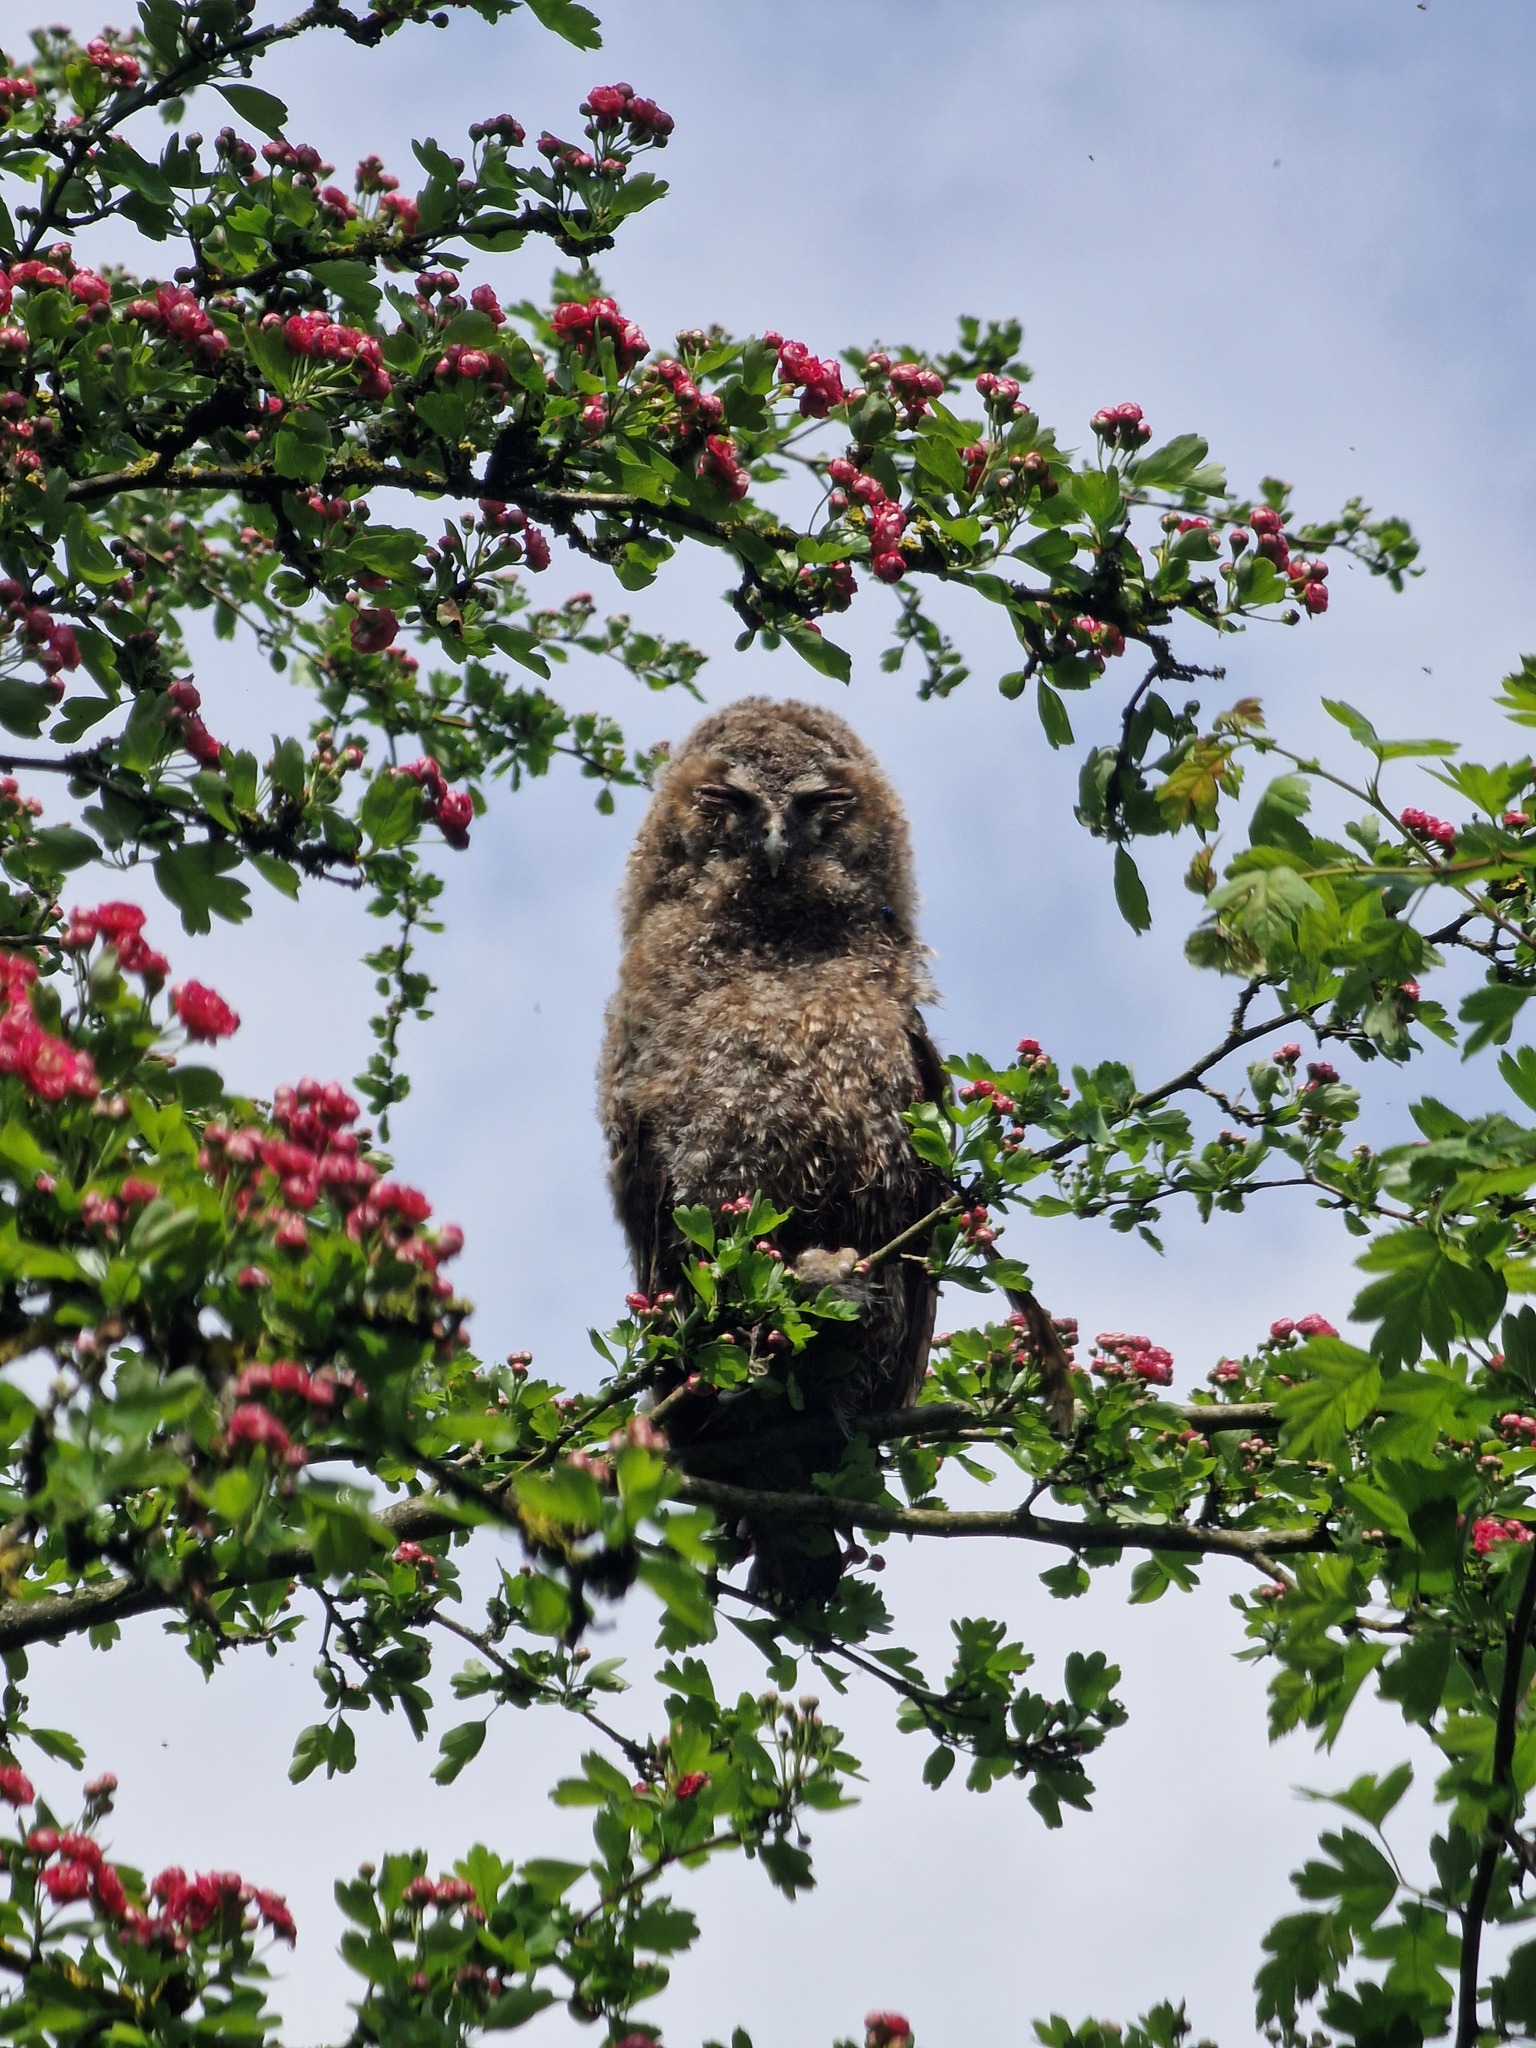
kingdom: Animalia
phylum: Chordata
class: Aves
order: Strigiformes
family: Strigidae
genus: Strix
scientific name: Strix aluco
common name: Tawny owl
